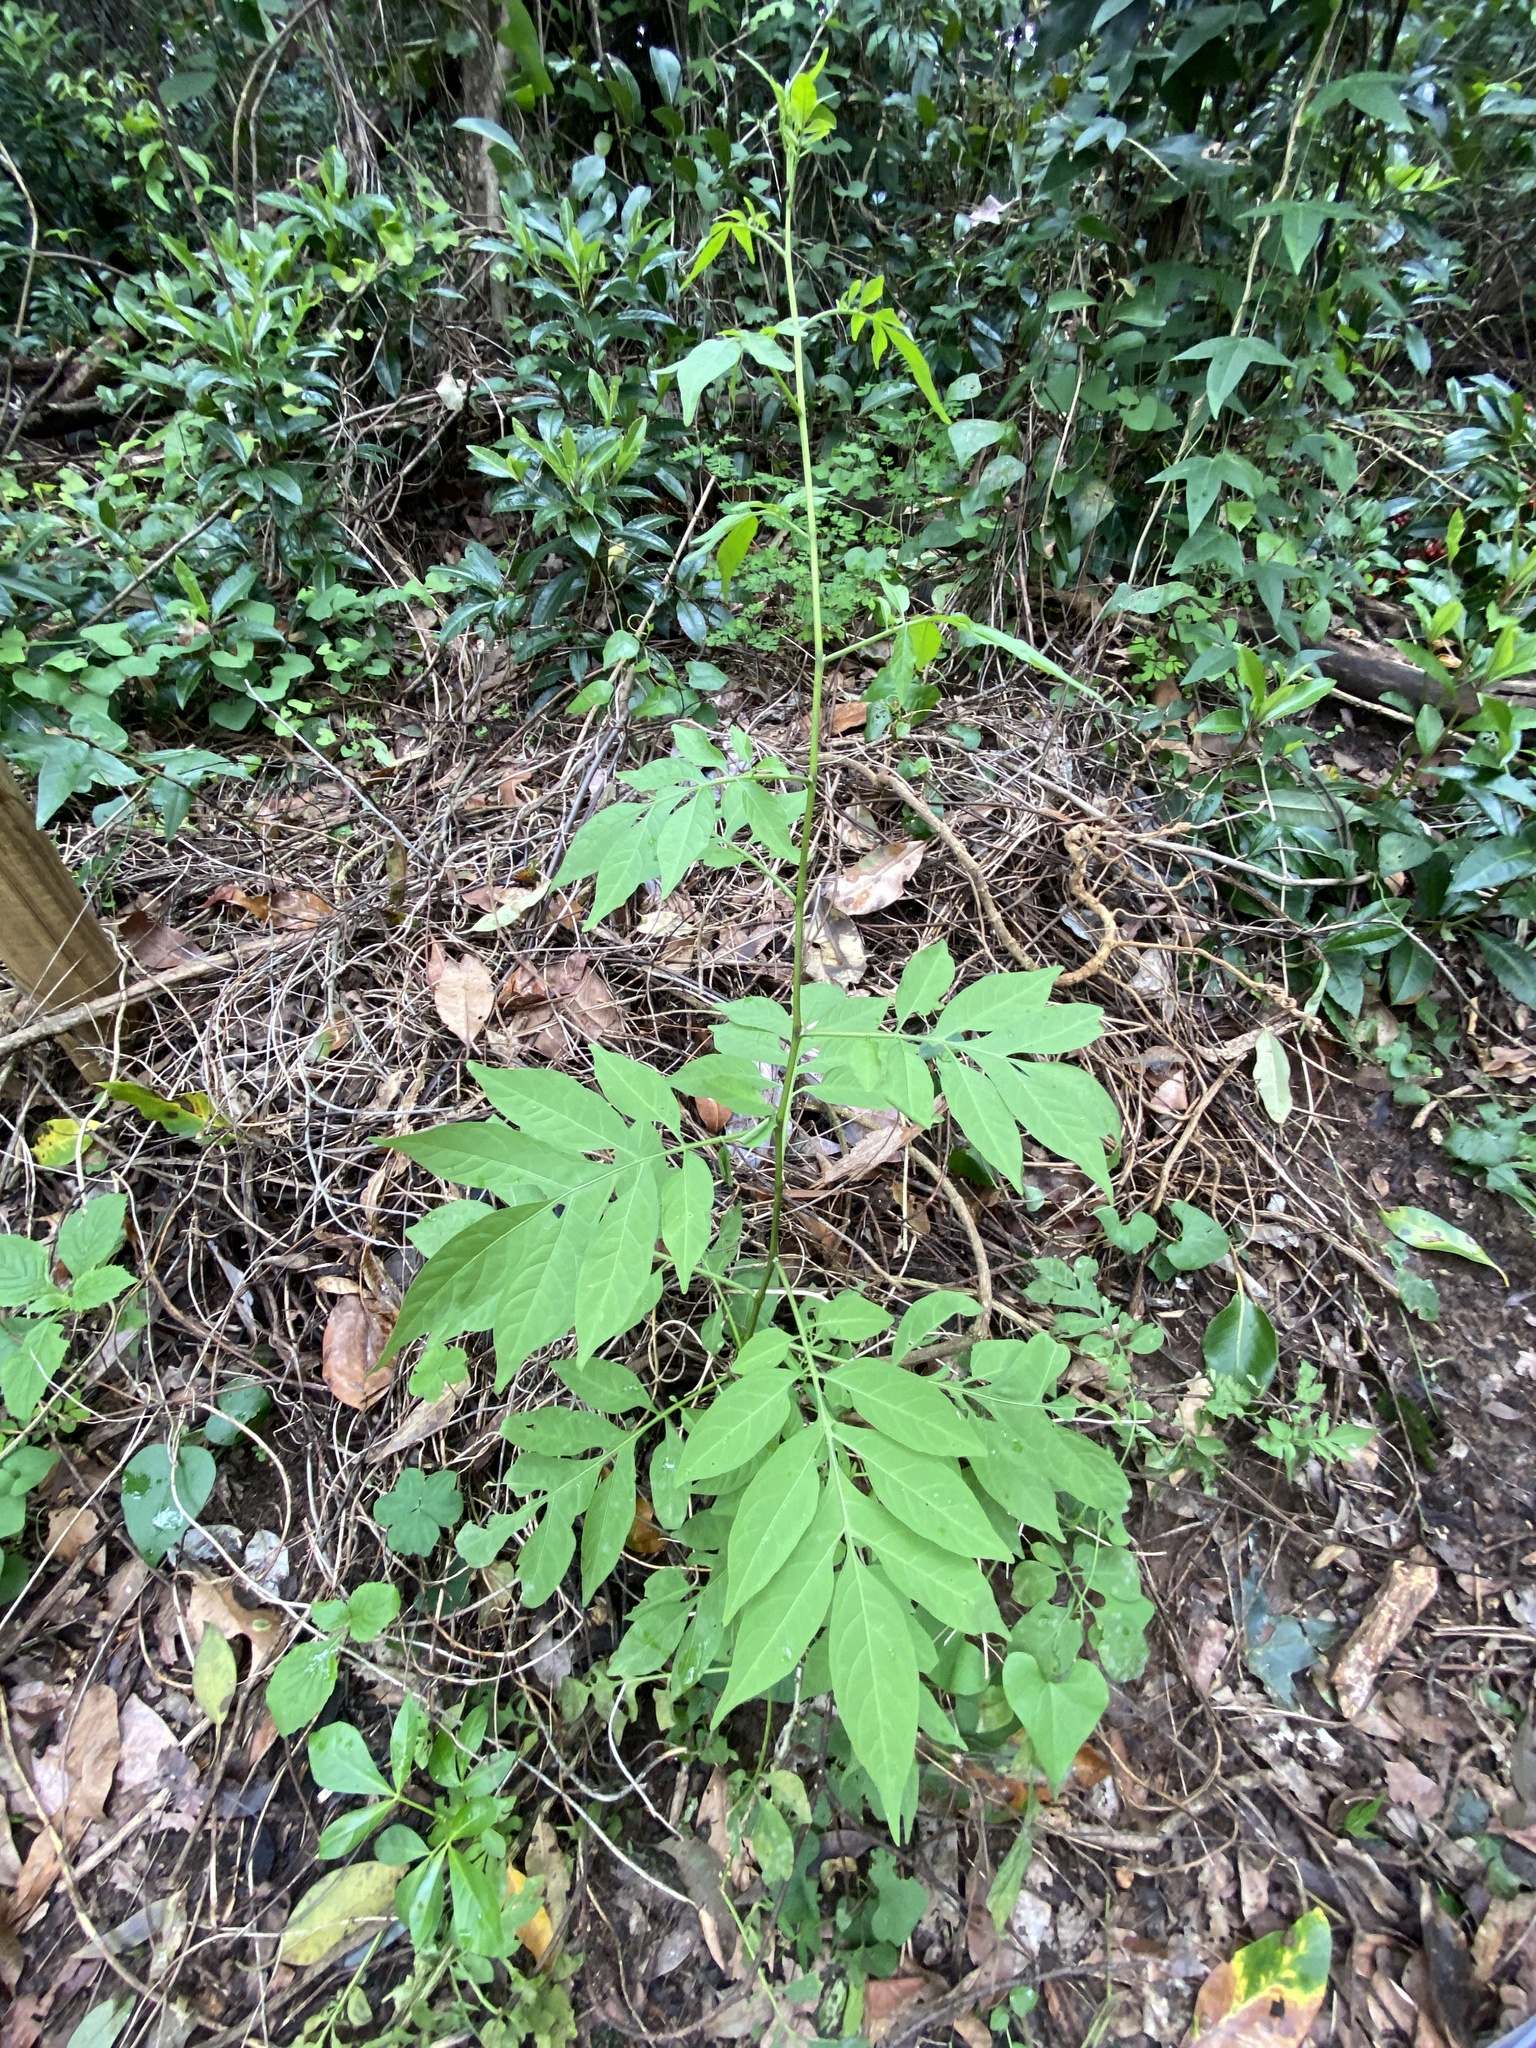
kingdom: Plantae
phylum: Tracheophyta
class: Magnoliopsida
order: Solanales
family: Solanaceae
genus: Solanum
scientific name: Solanum seaforthianum
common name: Brazilian nightshade
